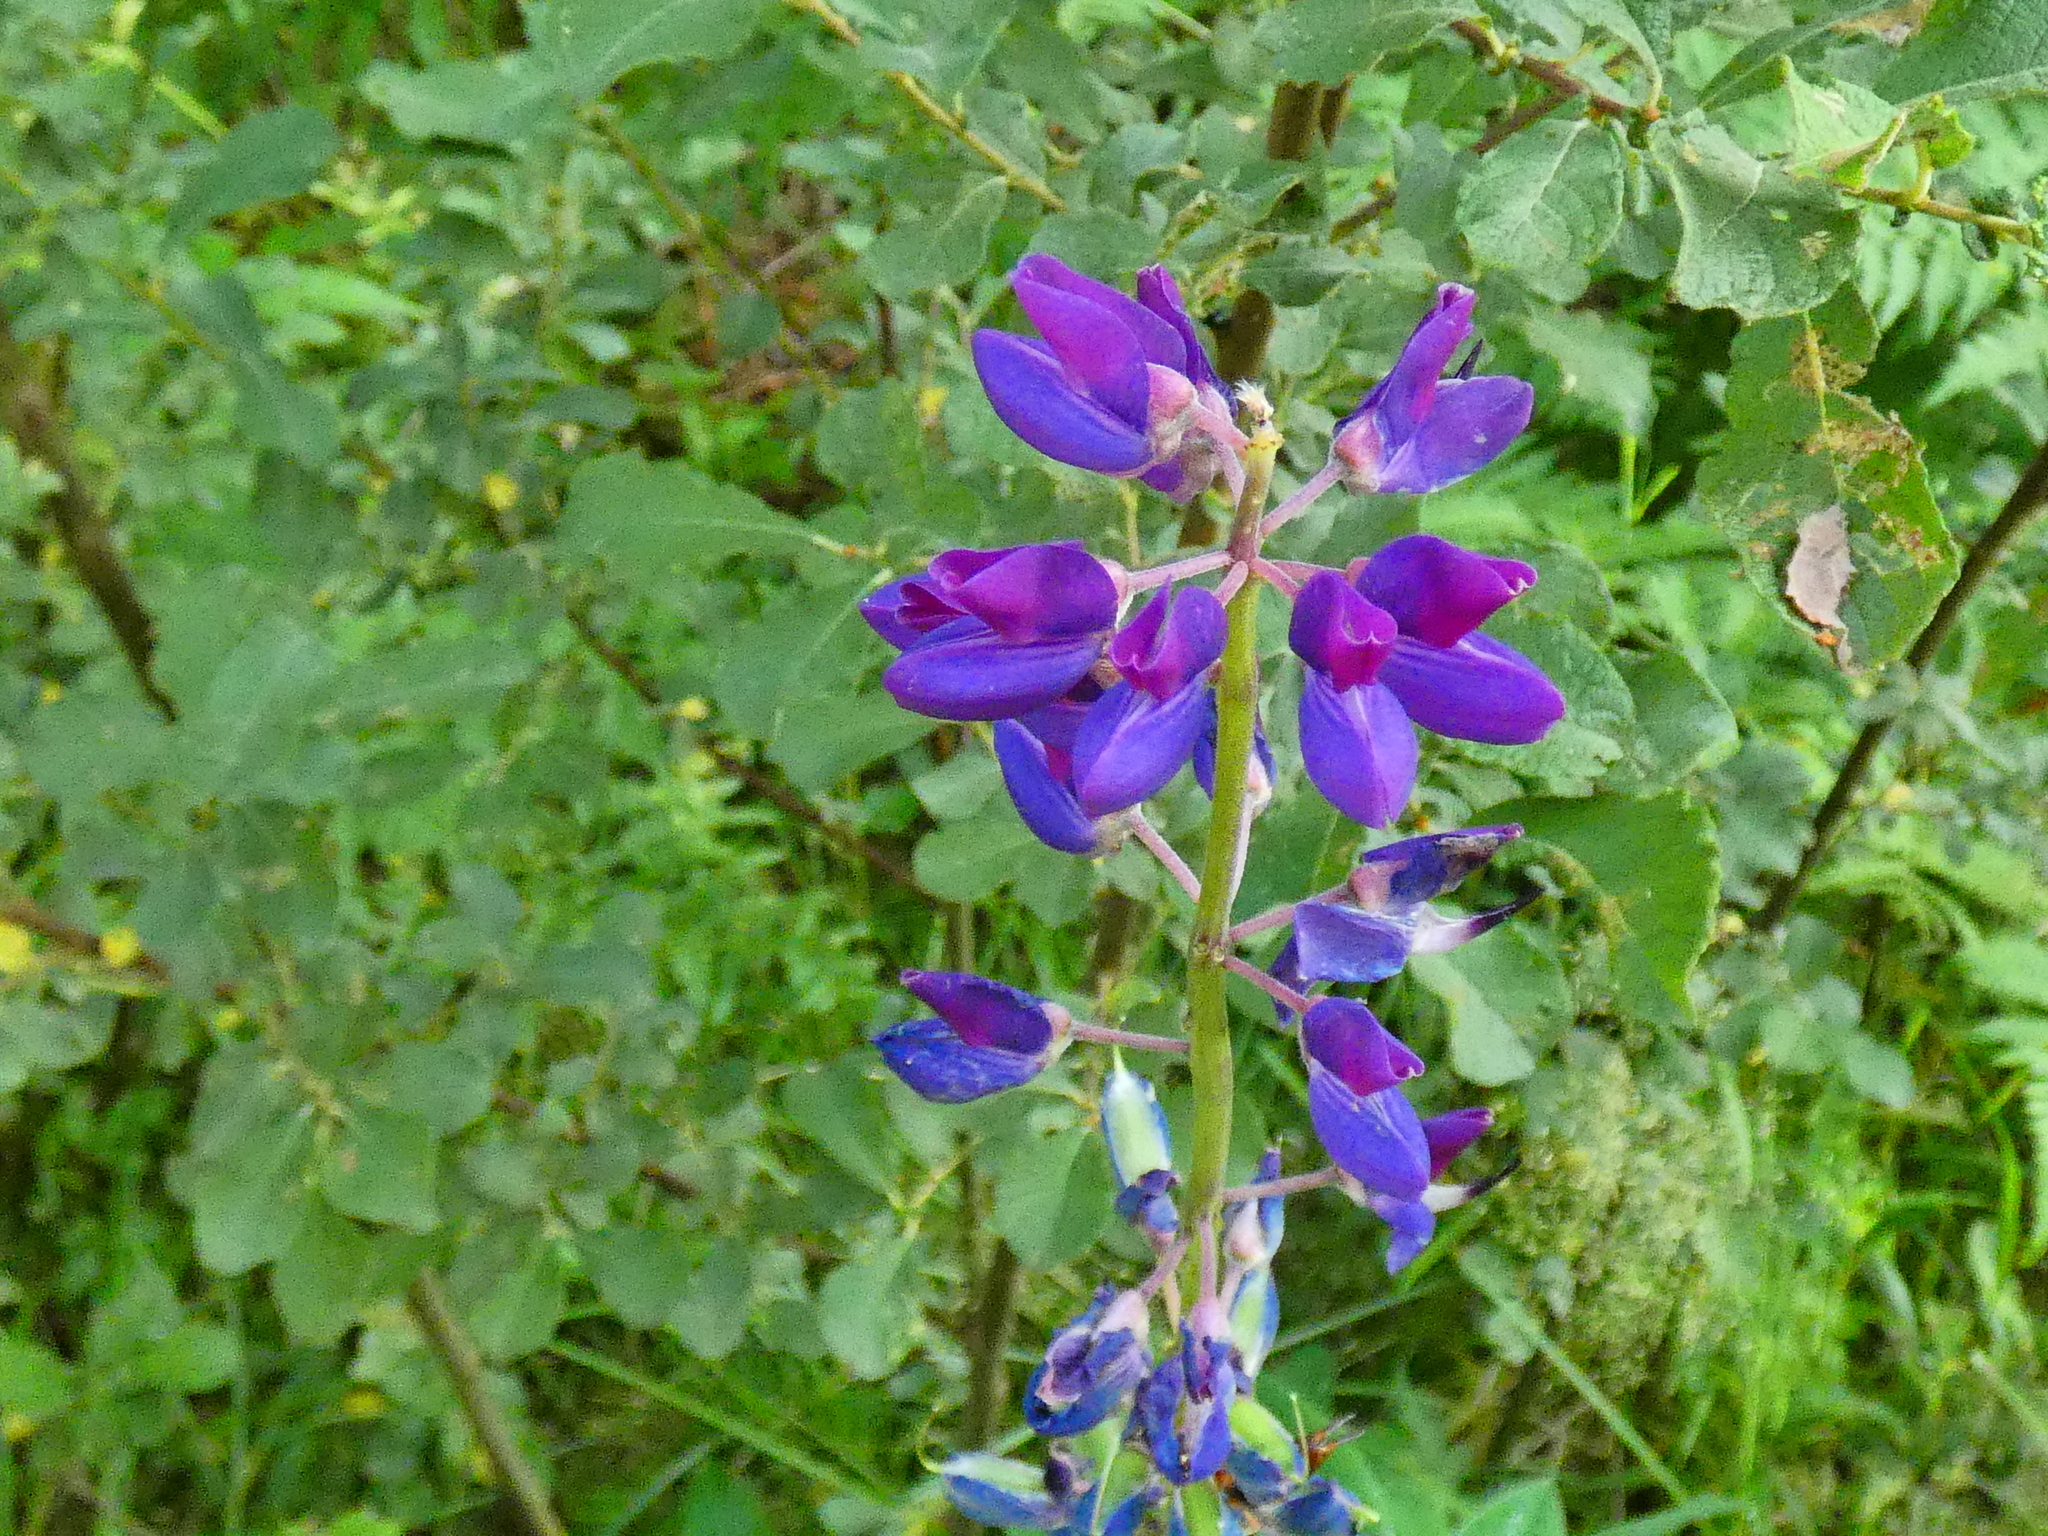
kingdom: Plantae
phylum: Tracheophyta
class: Magnoliopsida
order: Fabales
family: Fabaceae
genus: Lupinus
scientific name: Lupinus polyphyllus
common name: Garden lupin
